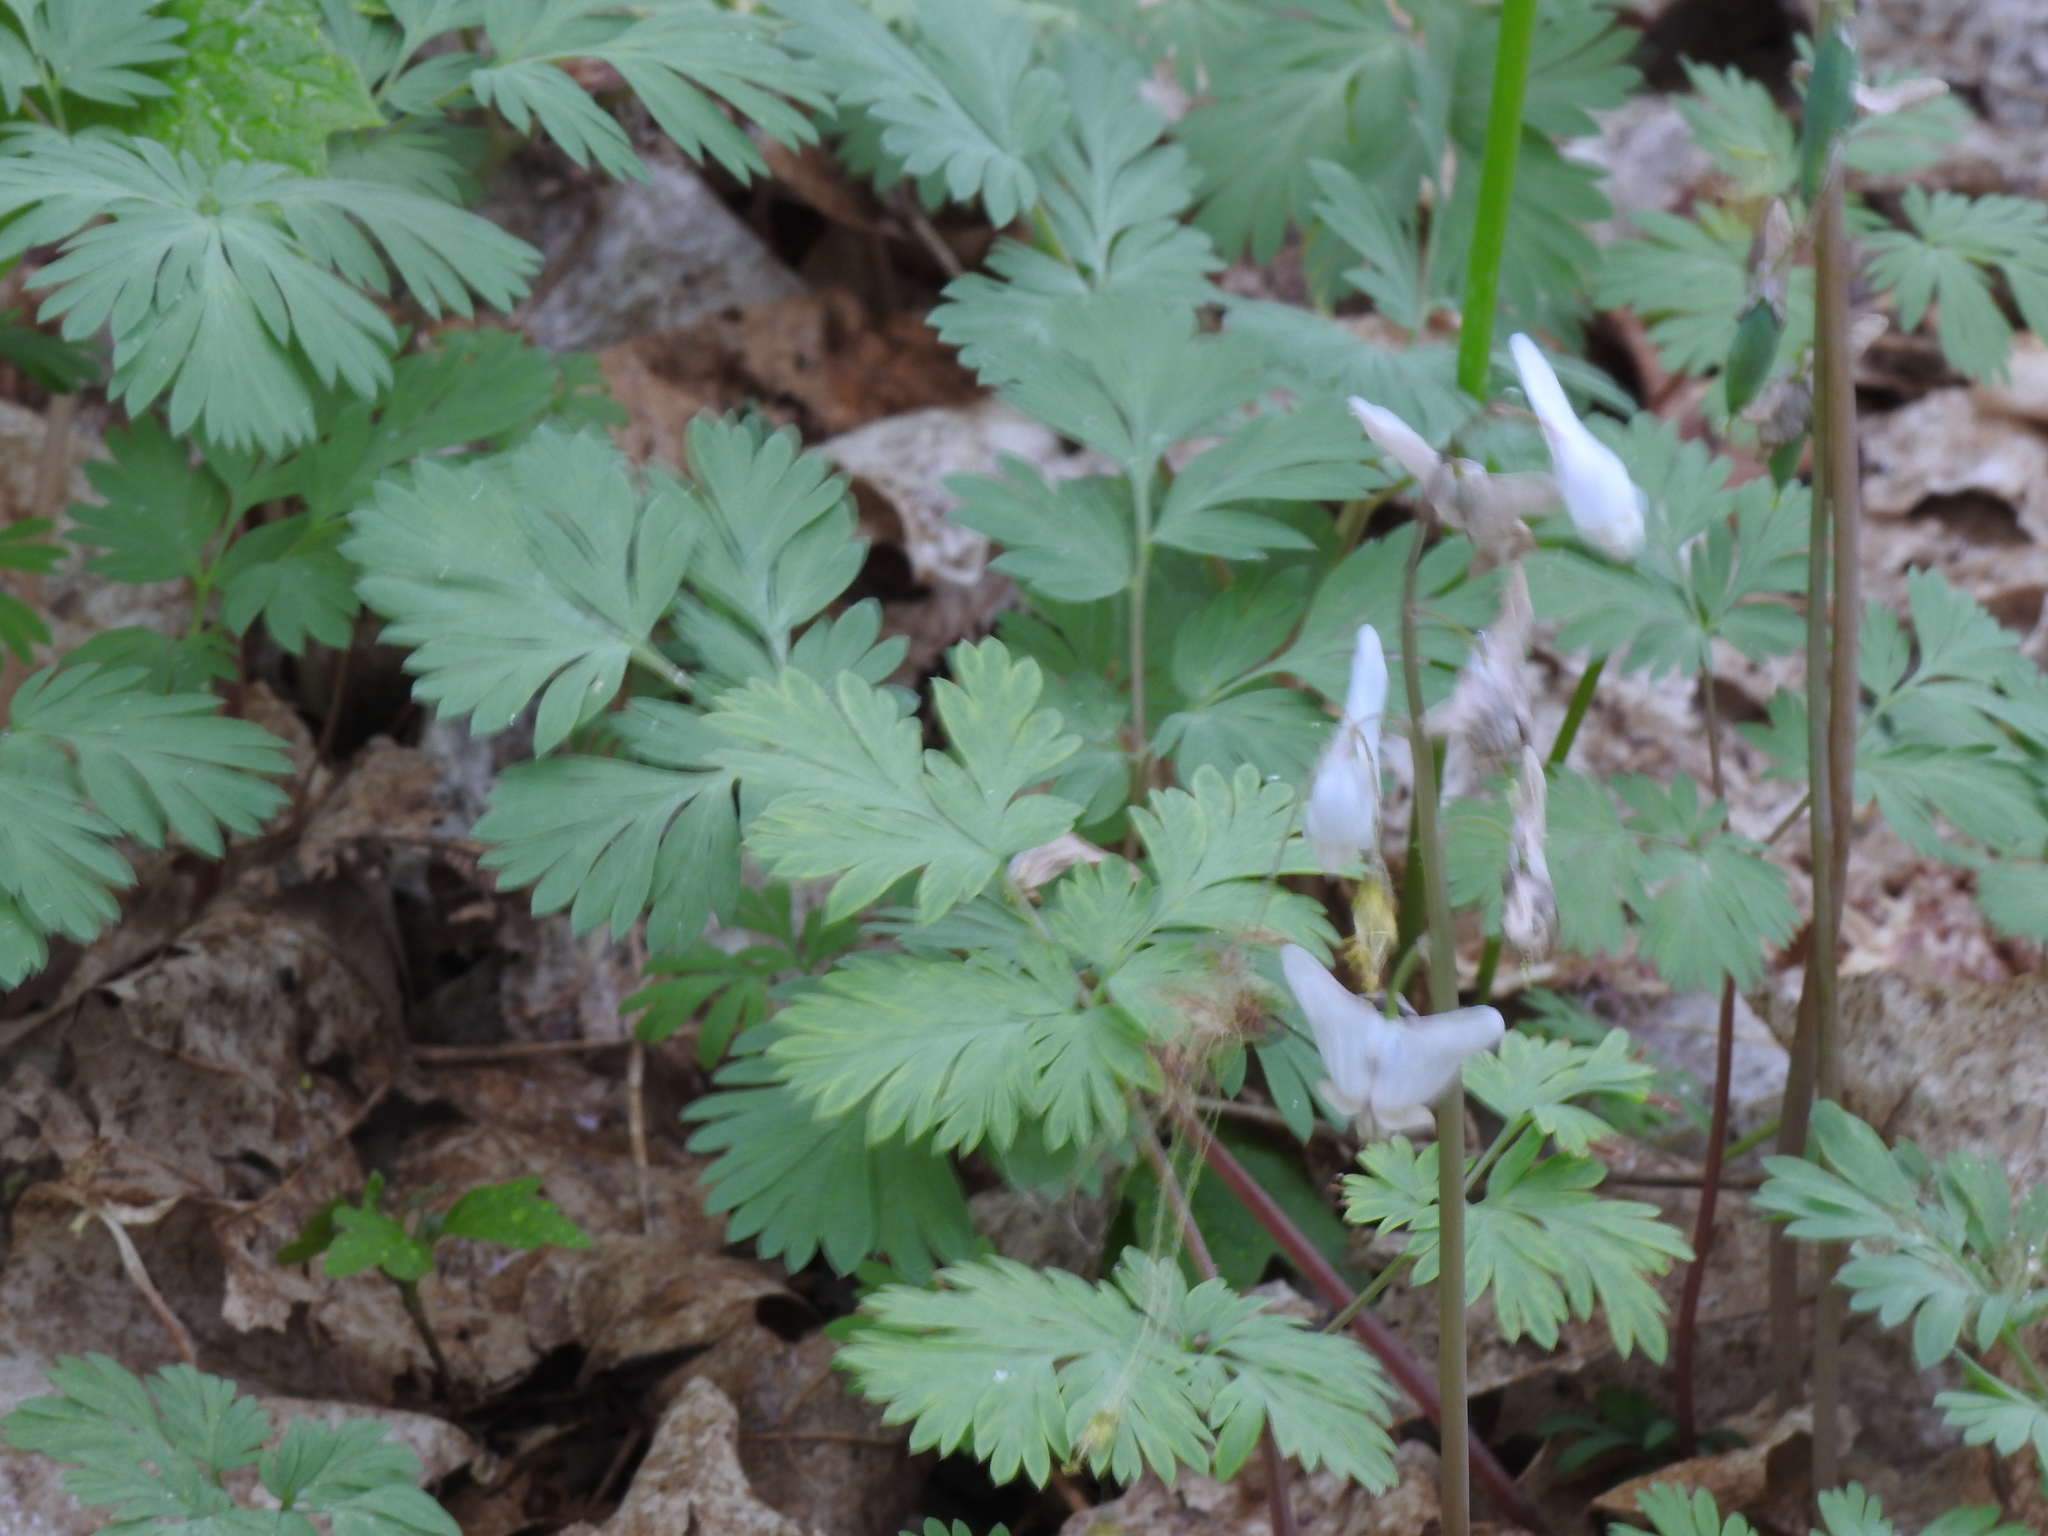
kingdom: Plantae
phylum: Tracheophyta
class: Magnoliopsida
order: Ranunculales
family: Papaveraceae
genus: Dicentra
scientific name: Dicentra cucullaria
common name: Dutchman's breeches
